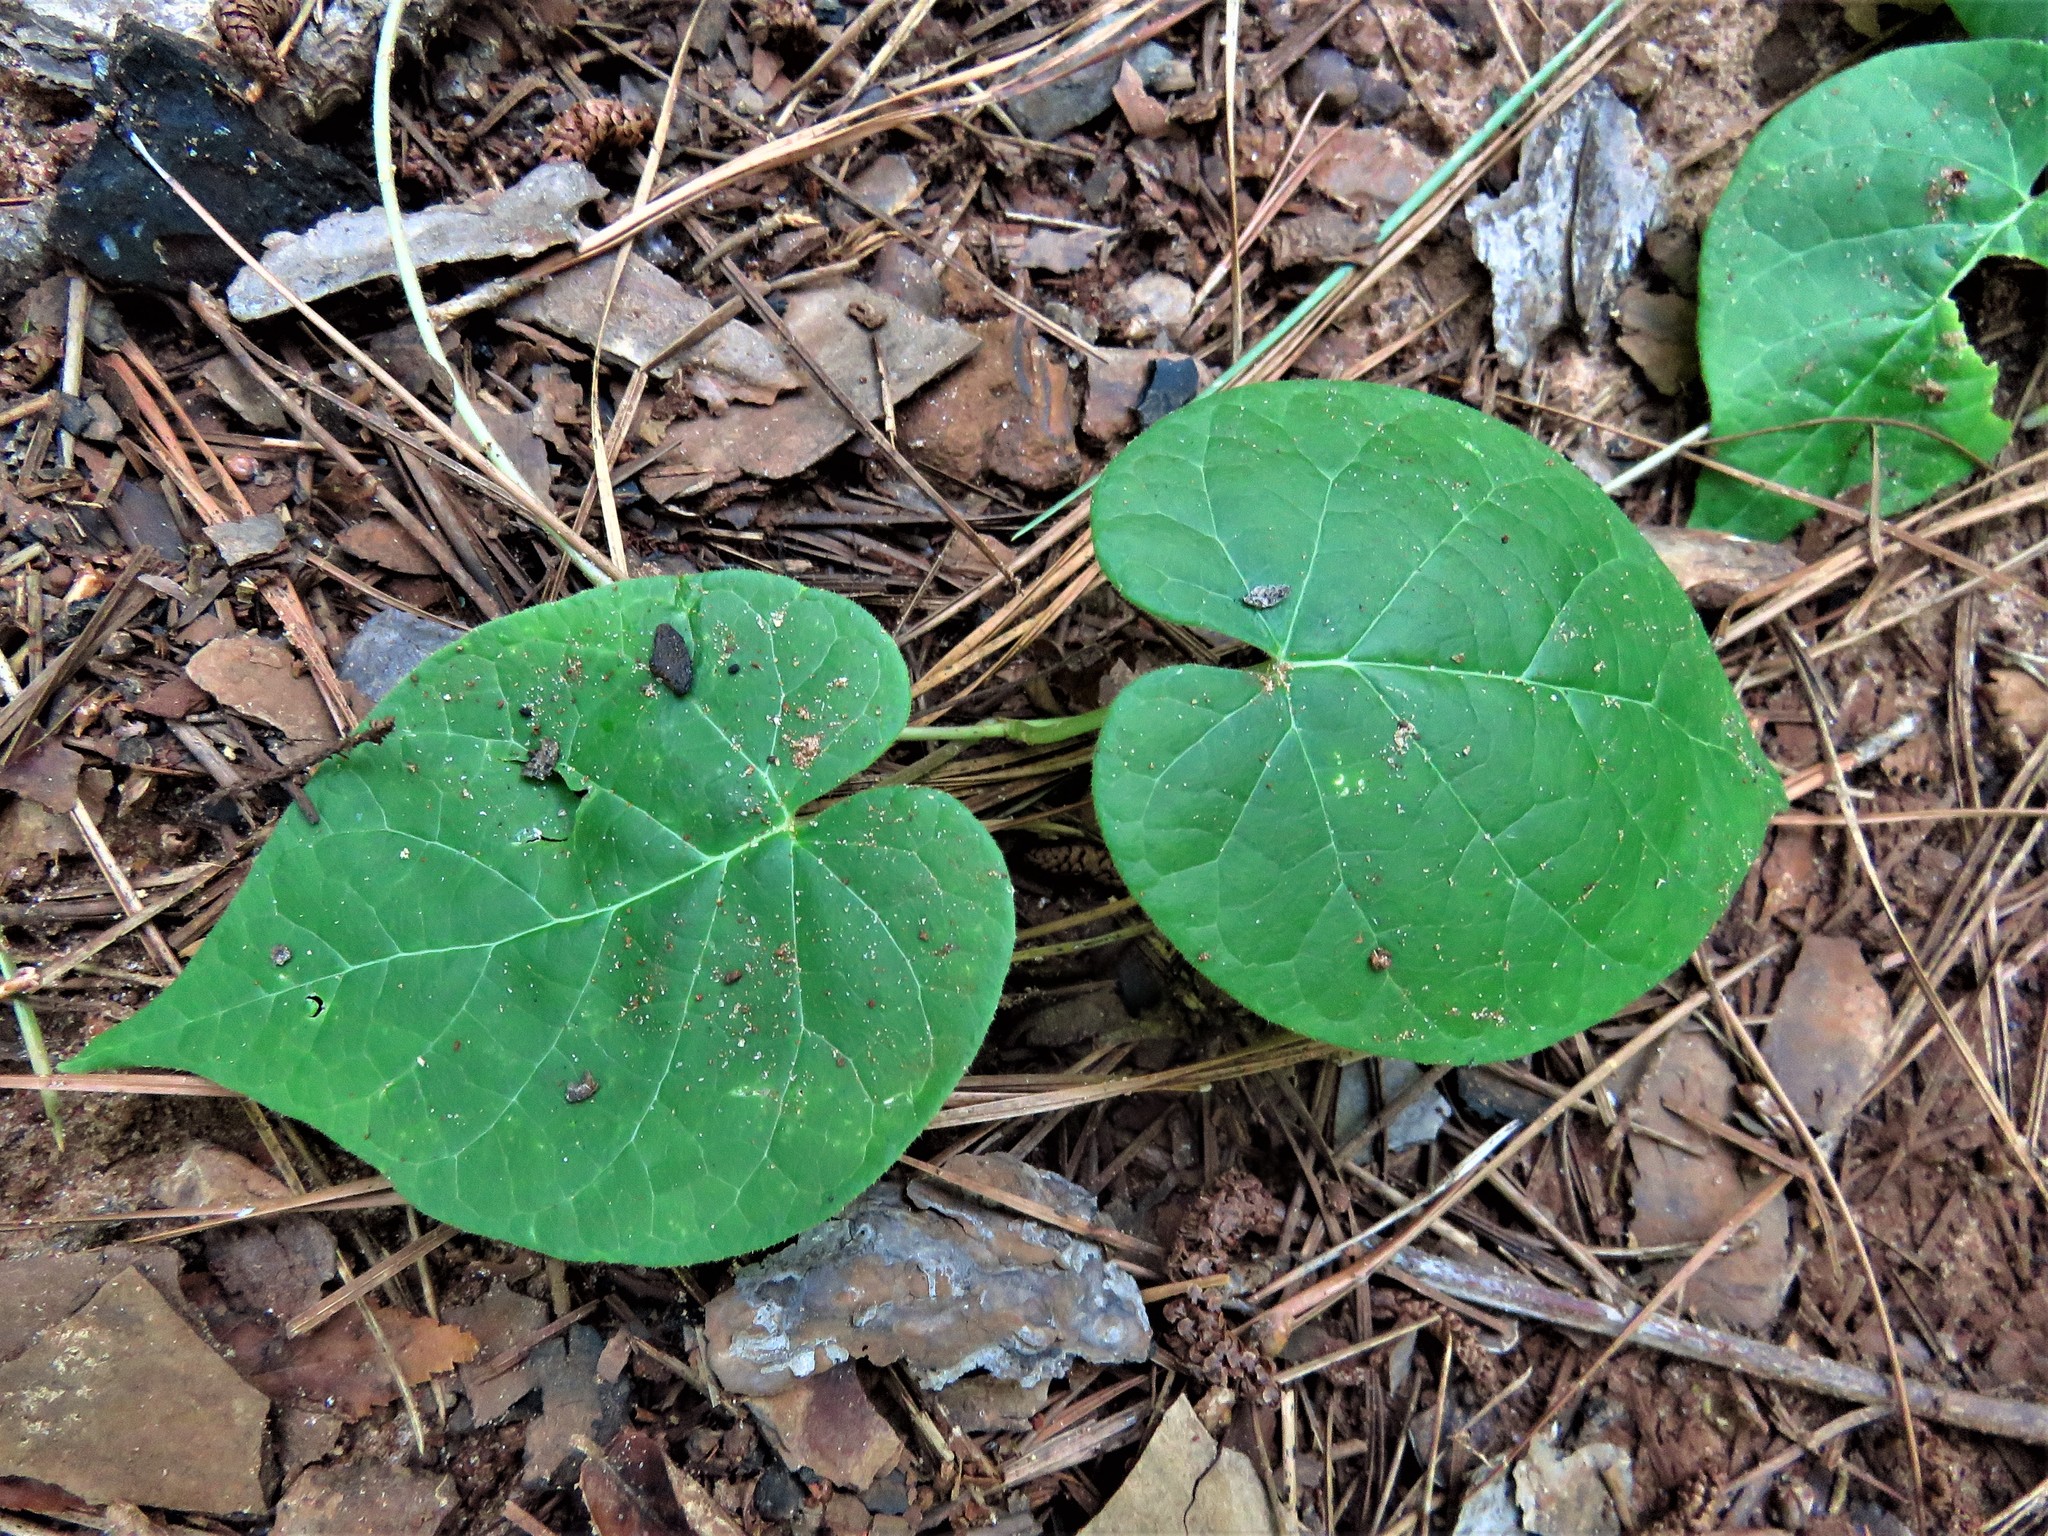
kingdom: Plantae
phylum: Tracheophyta
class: Magnoliopsida
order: Gentianales
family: Apocynaceae
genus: Matelea
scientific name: Matelea hirtelliflora
